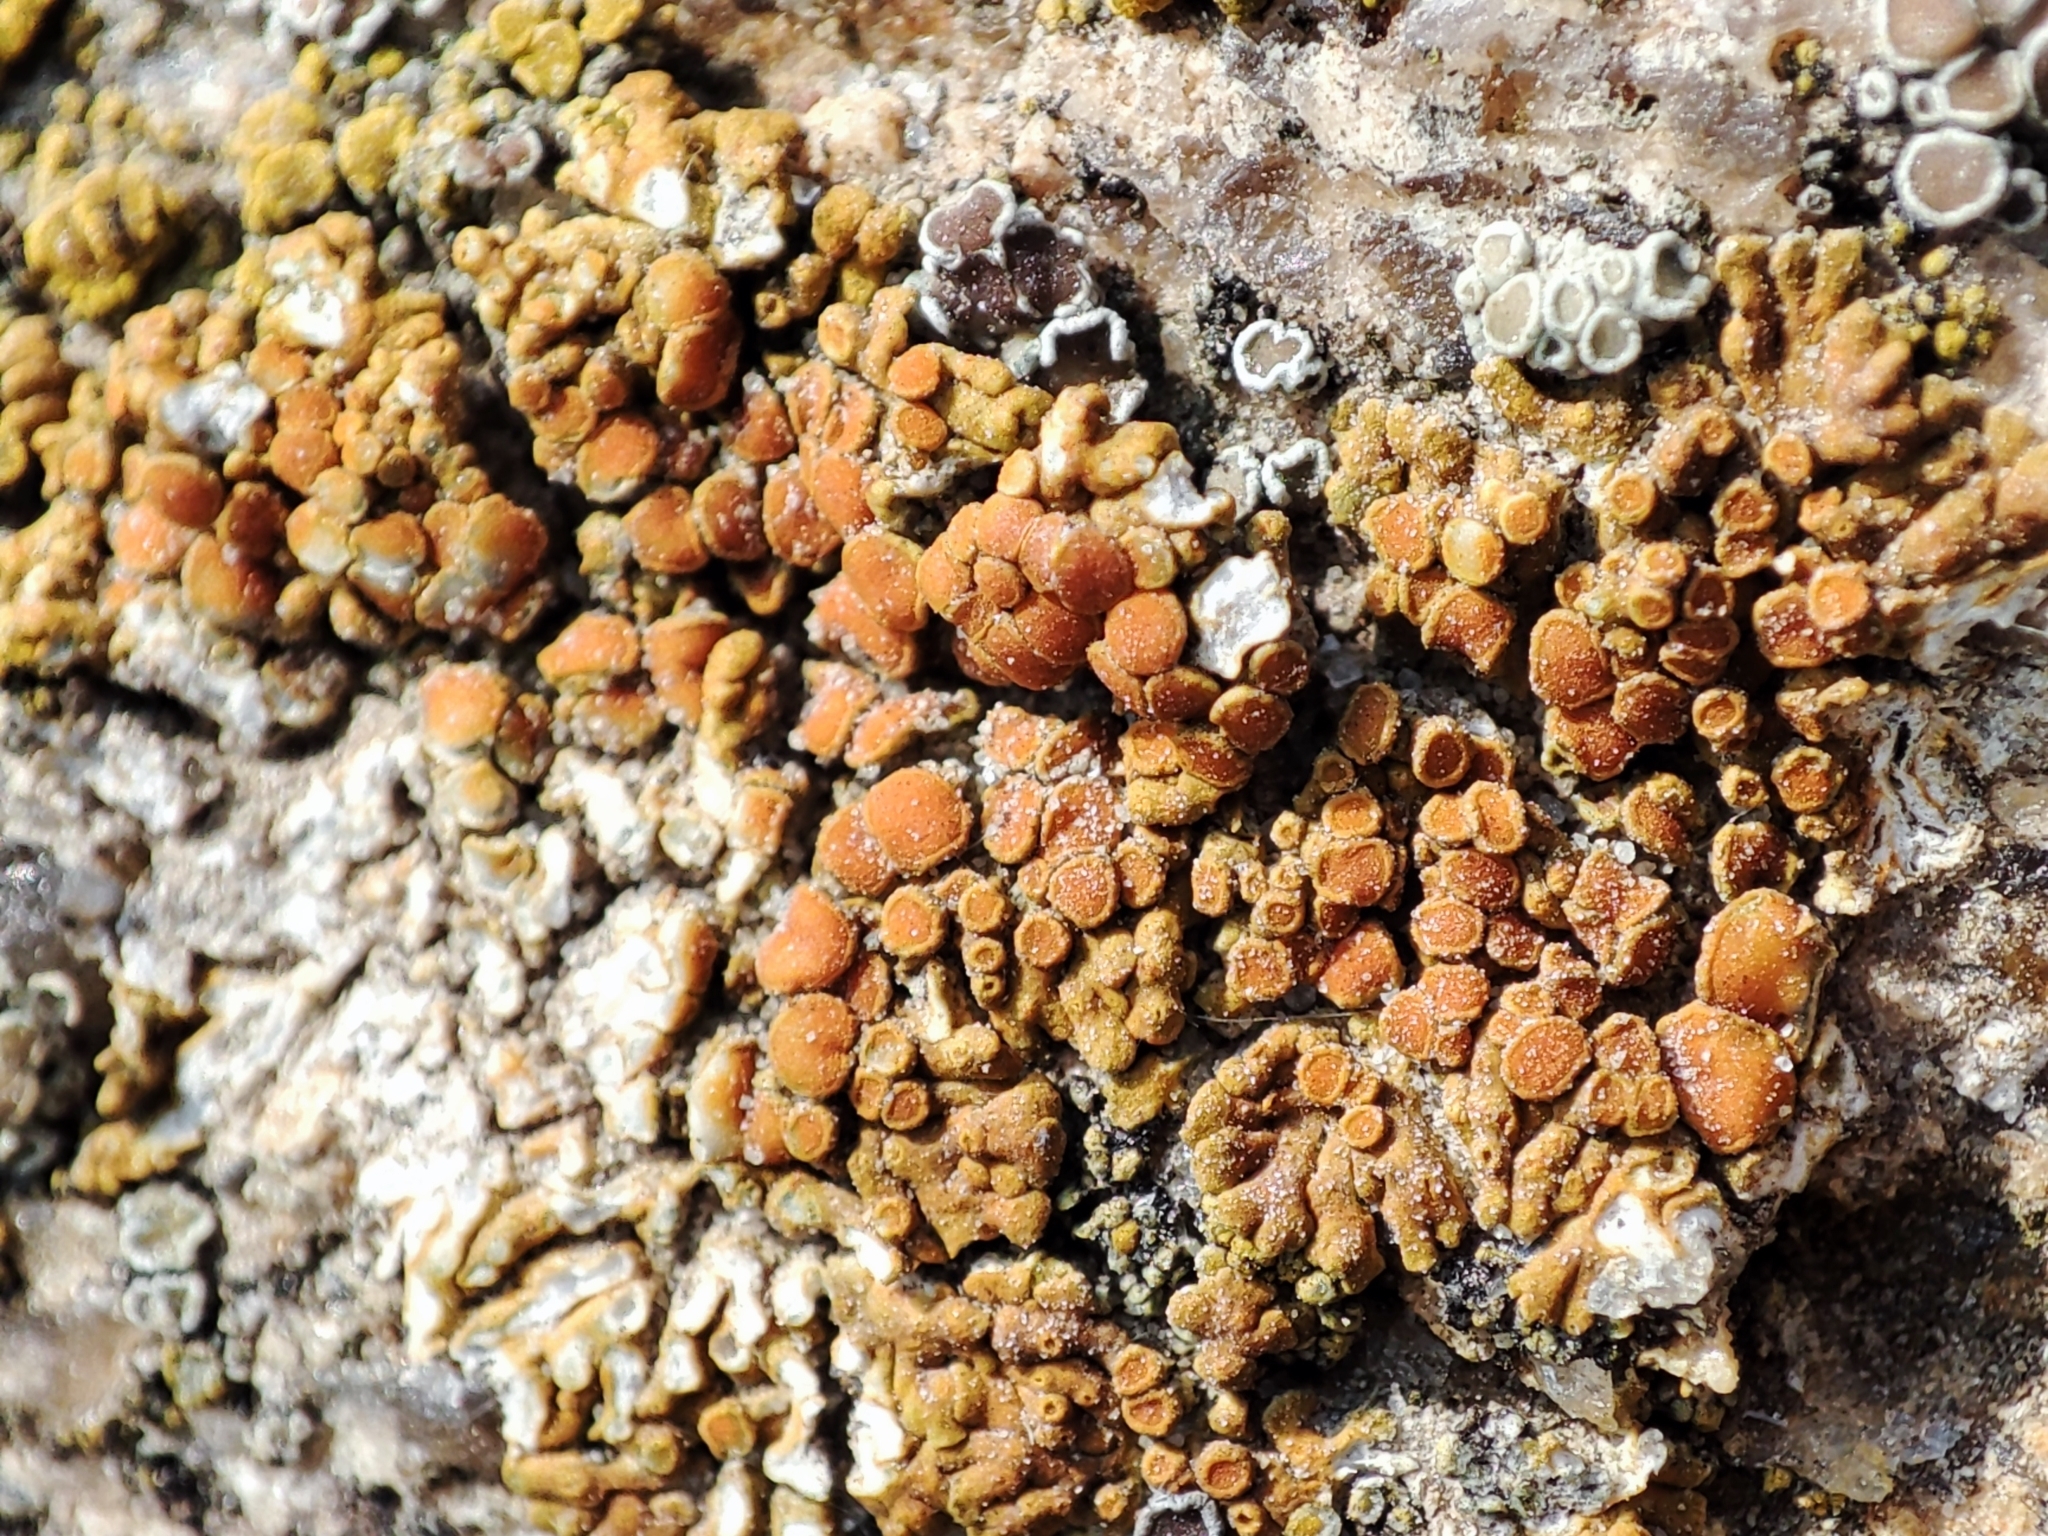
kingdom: Fungi
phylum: Ascomycota
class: Lecanoromycetes
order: Teloschistales
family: Teloschistaceae
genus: Calogaya
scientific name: Calogaya saxicola
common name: Rock jewel lichen
